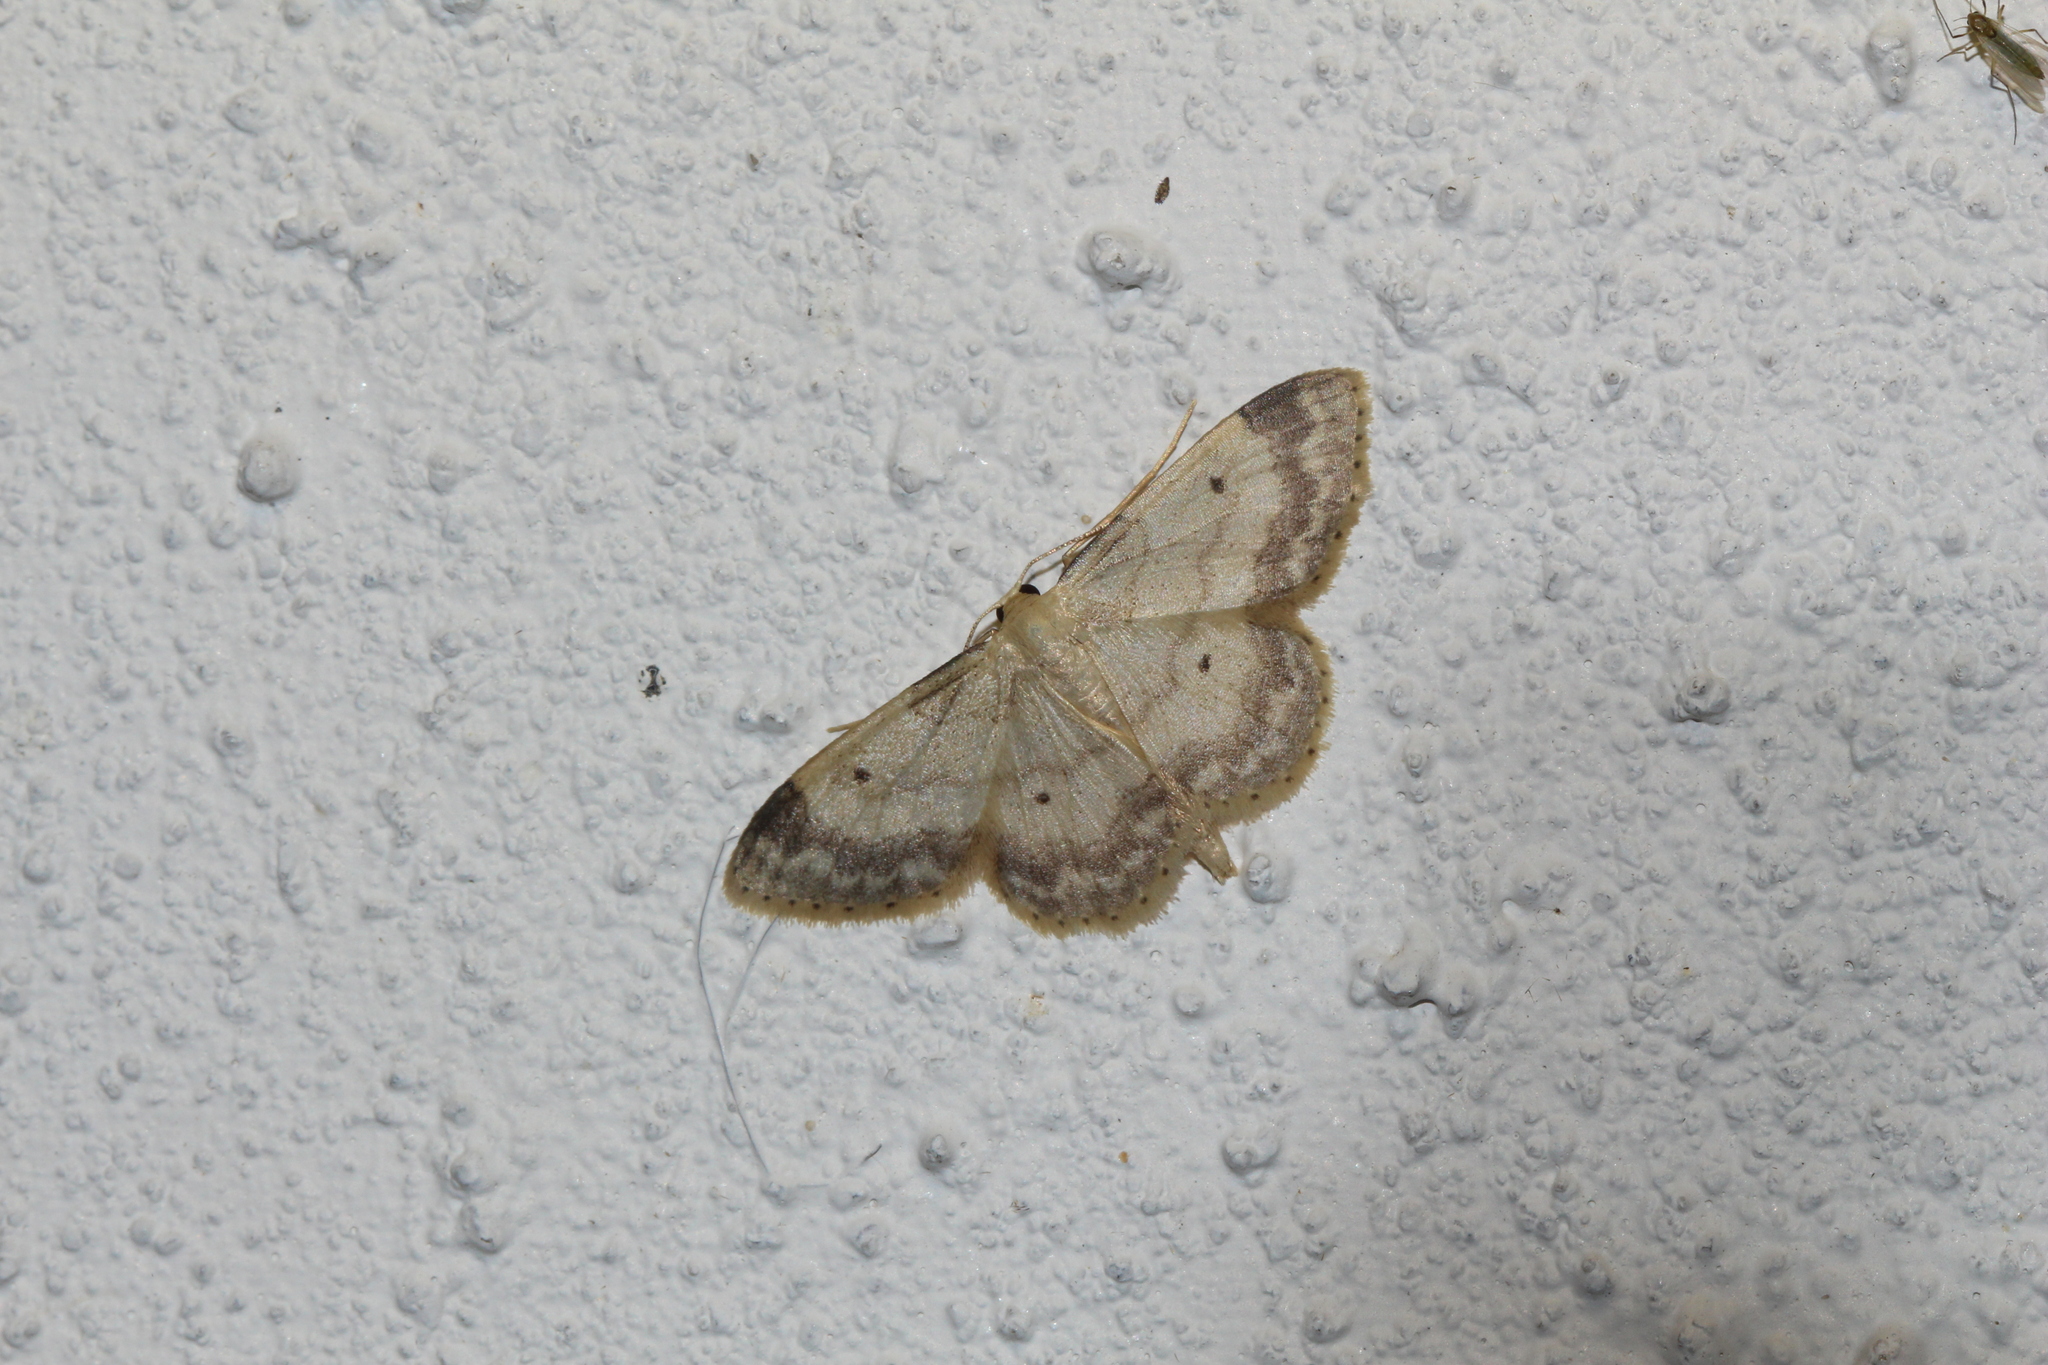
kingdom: Animalia
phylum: Arthropoda
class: Insecta
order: Lepidoptera
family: Geometridae
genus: Idaea
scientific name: Idaea biselata
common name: Small fan-footed wave
